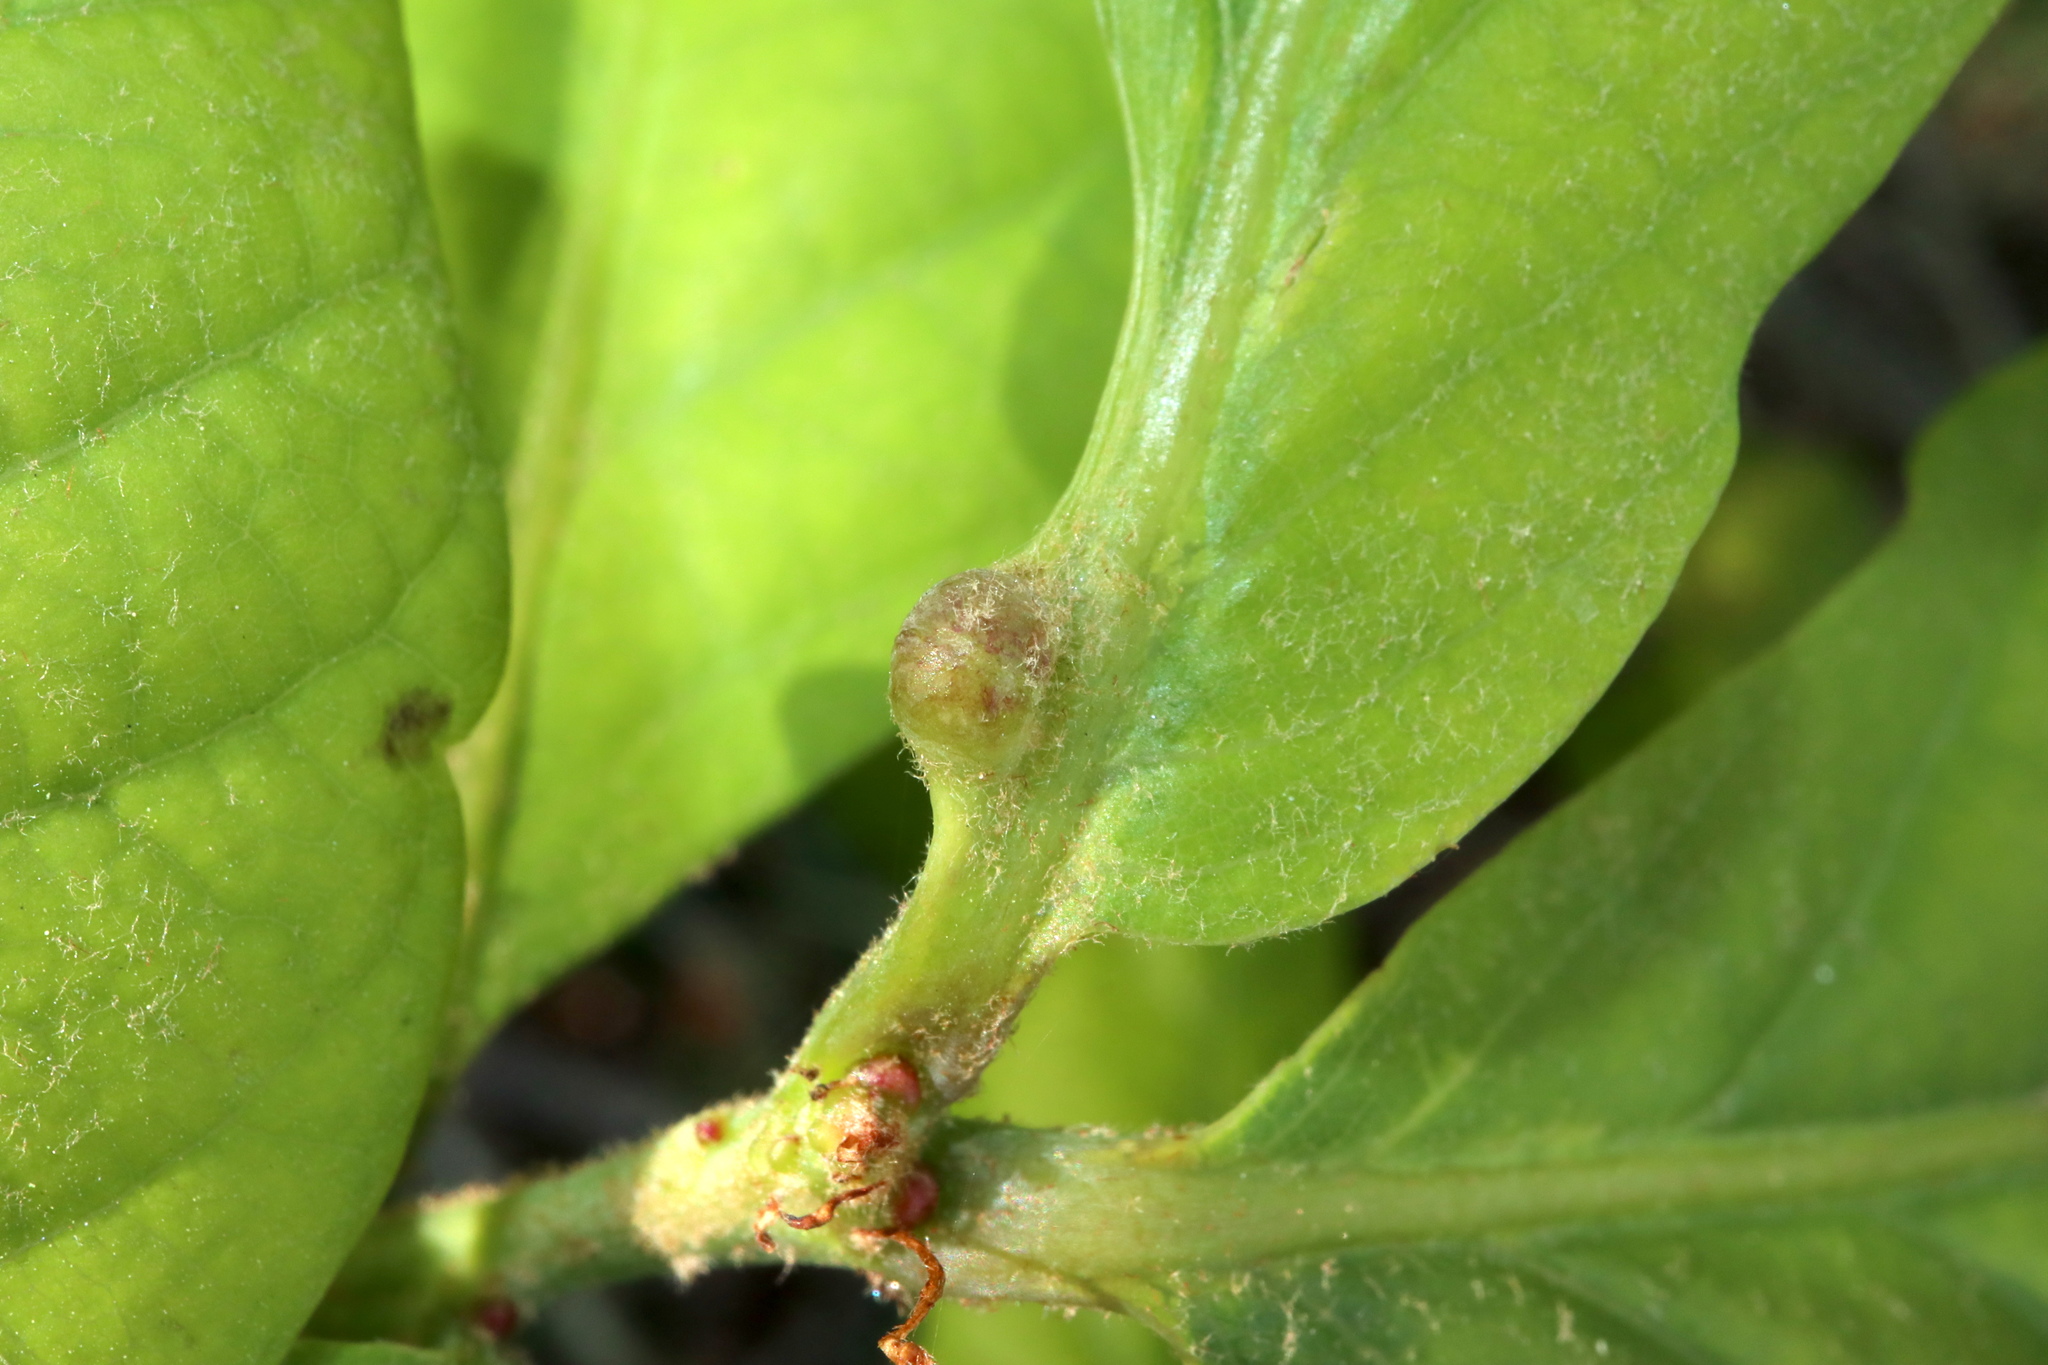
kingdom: Animalia
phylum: Arthropoda
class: Insecta
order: Hymenoptera
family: Cynipidae
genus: Andricus
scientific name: Andricus
